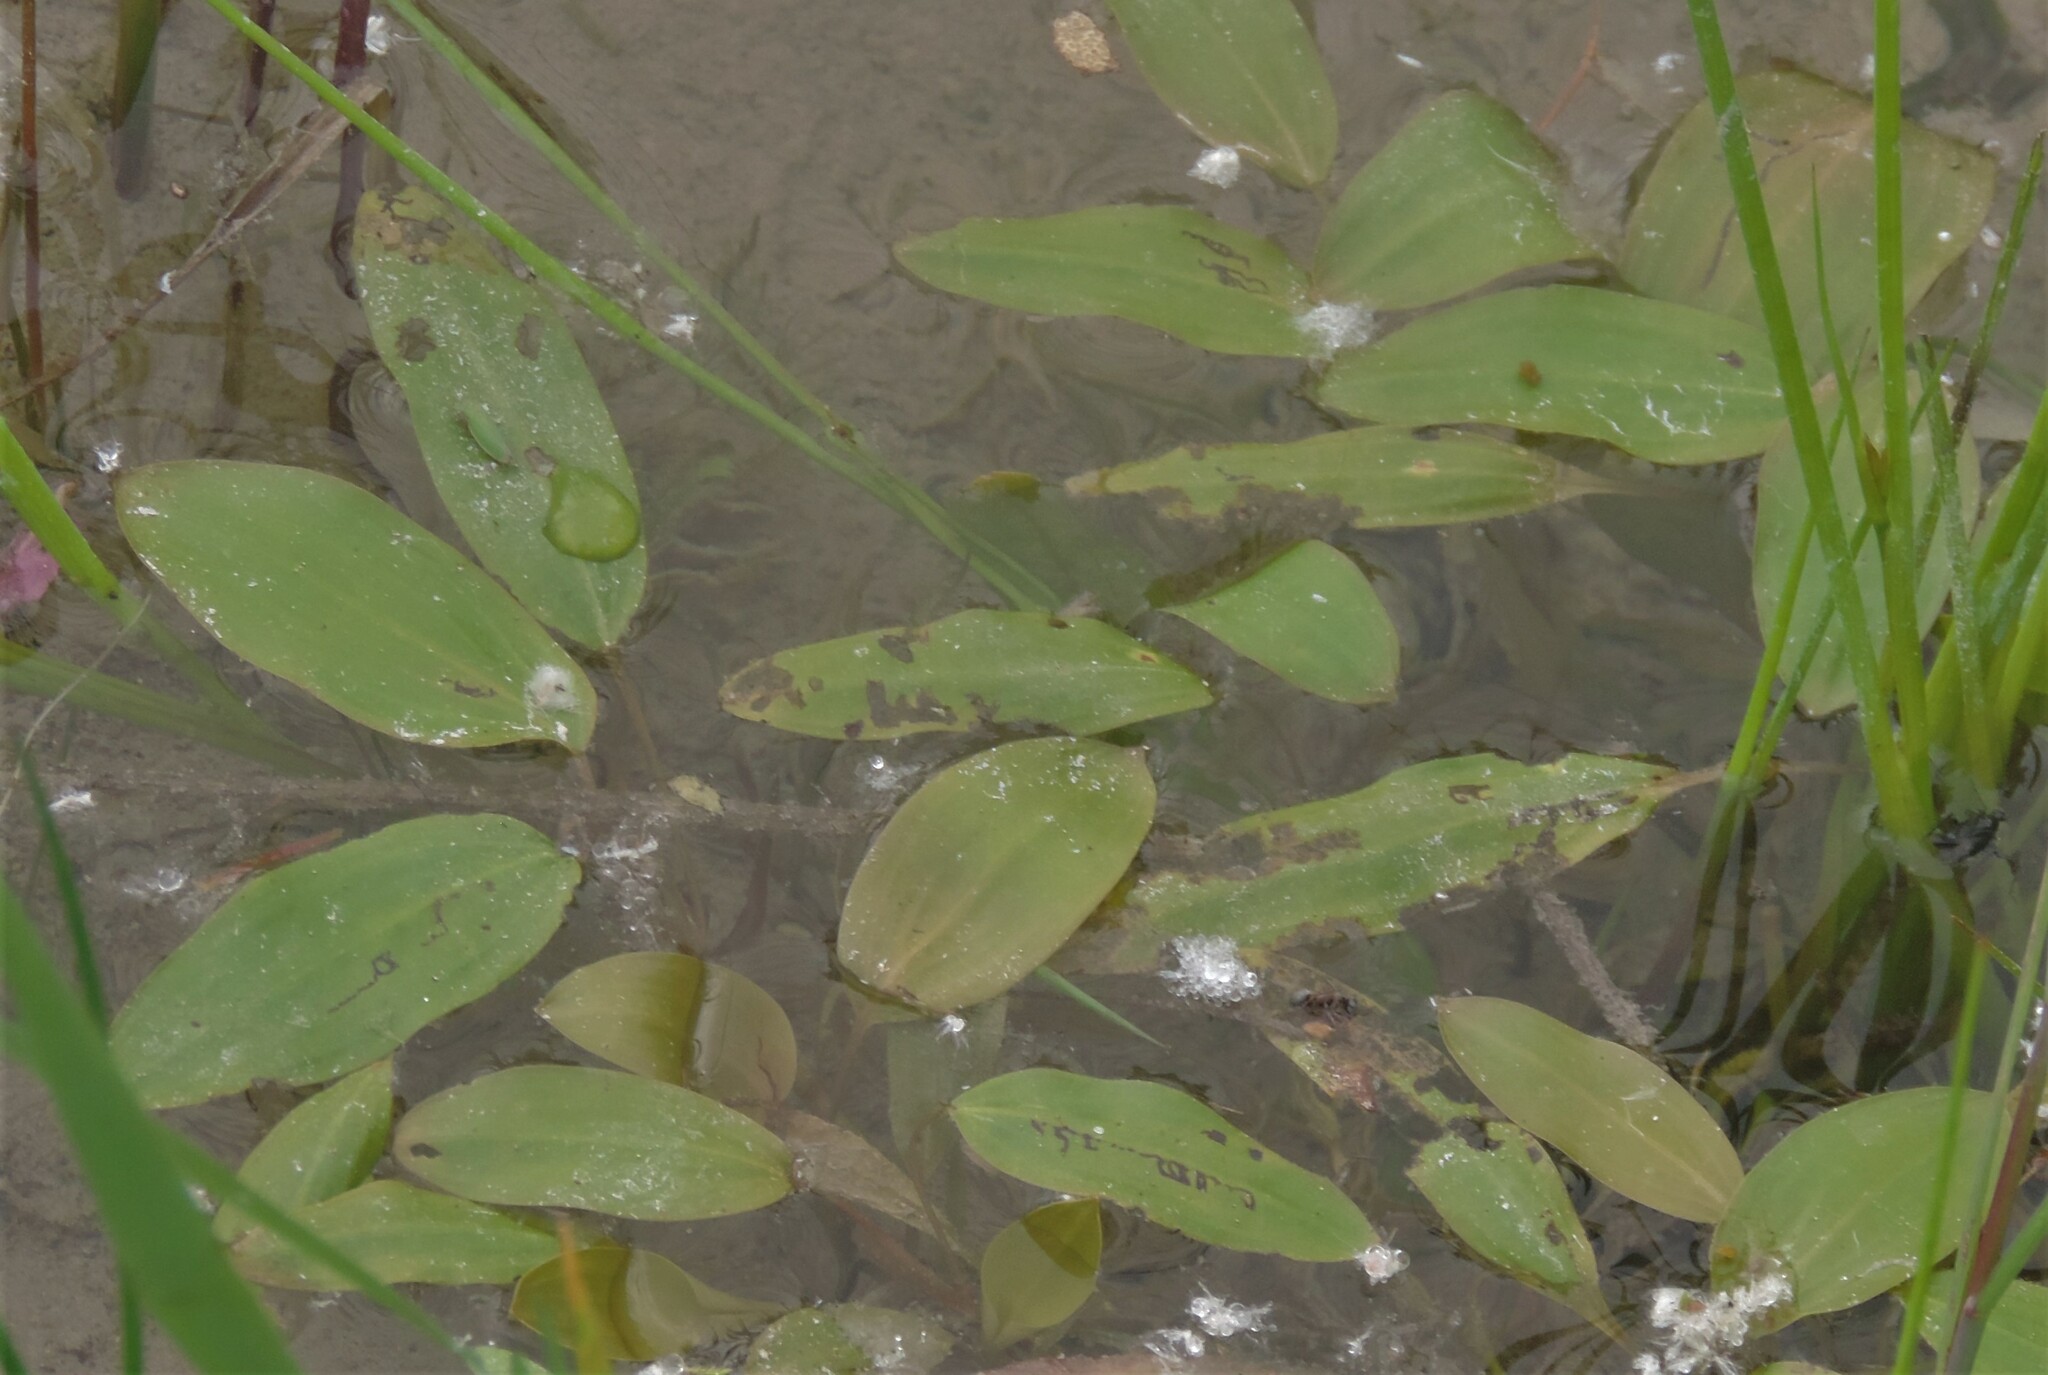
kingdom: Plantae
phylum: Tracheophyta
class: Liliopsida
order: Alismatales
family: Potamogetonaceae
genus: Potamogeton
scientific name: Potamogeton gramineus
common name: Various-leaved pondweed
